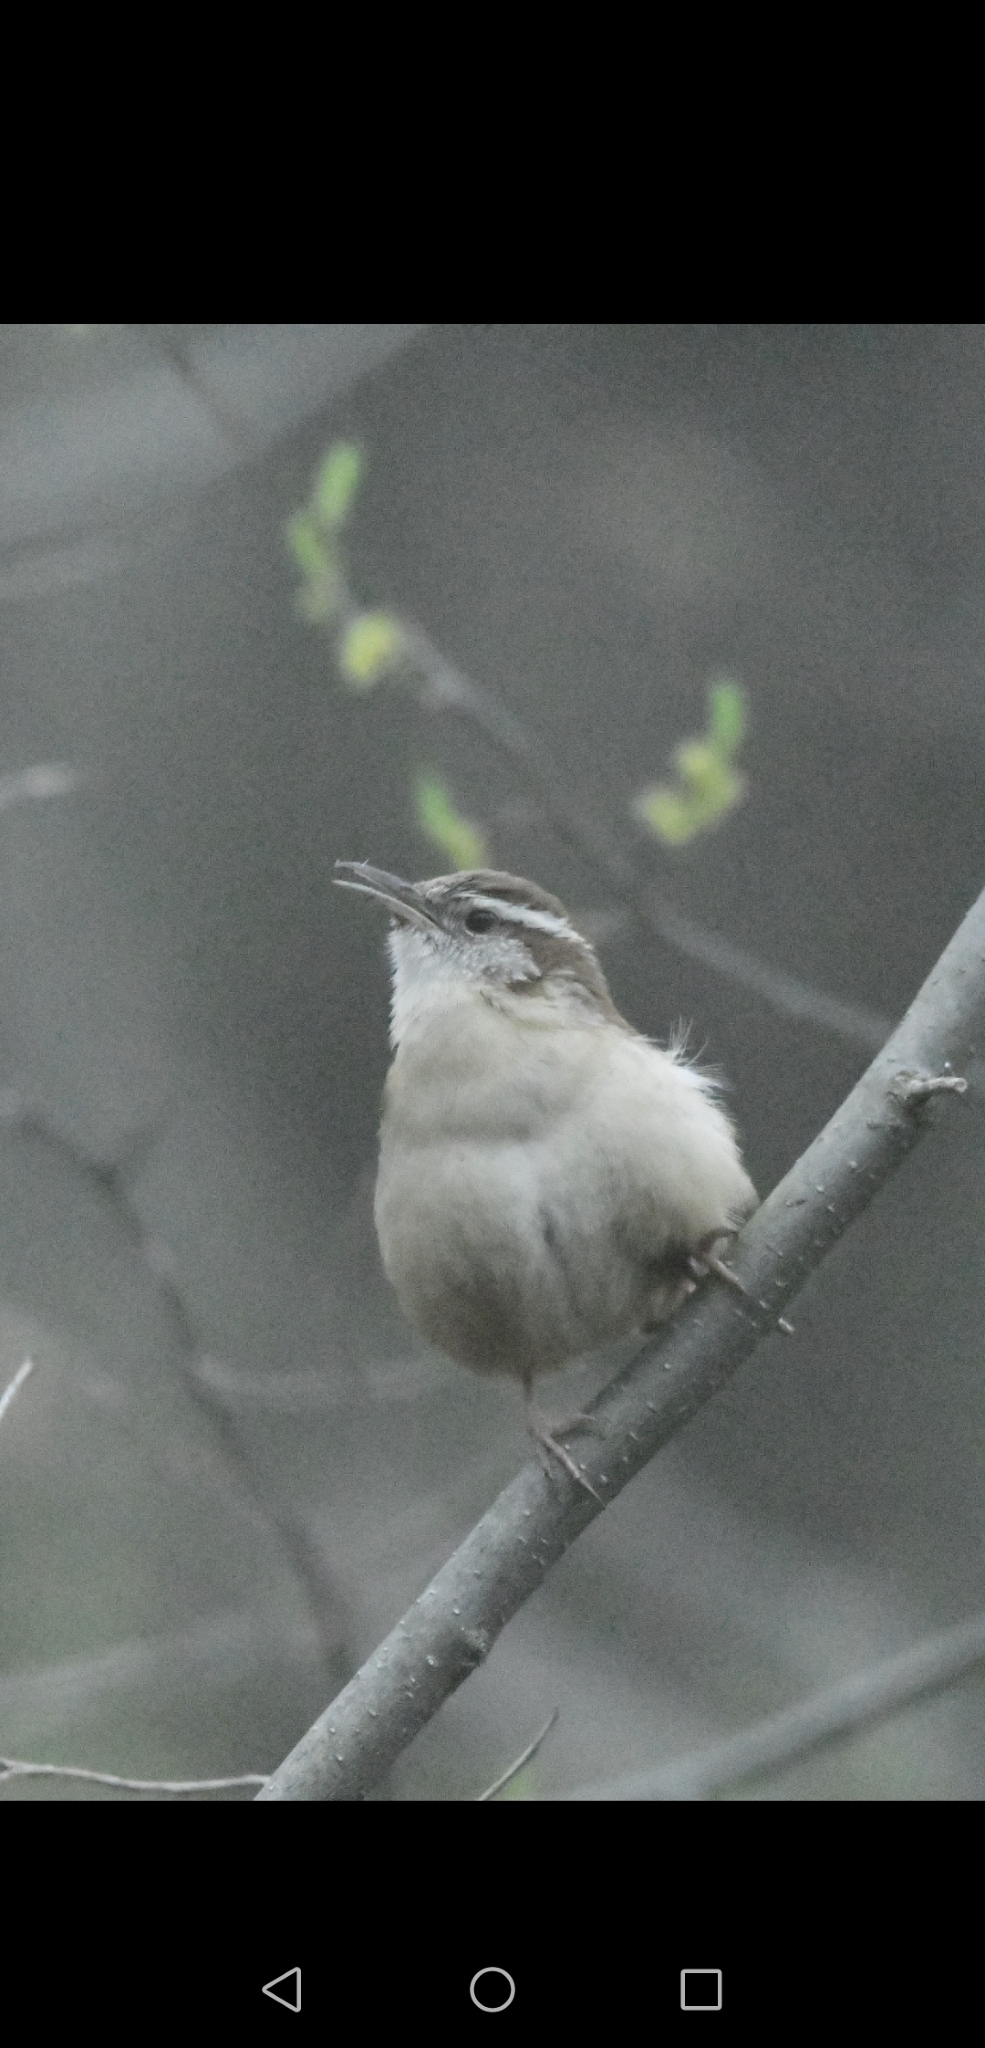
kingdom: Animalia
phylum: Chordata
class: Aves
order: Passeriformes
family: Troglodytidae
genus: Thryothorus
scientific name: Thryothorus ludovicianus
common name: Carolina wren
